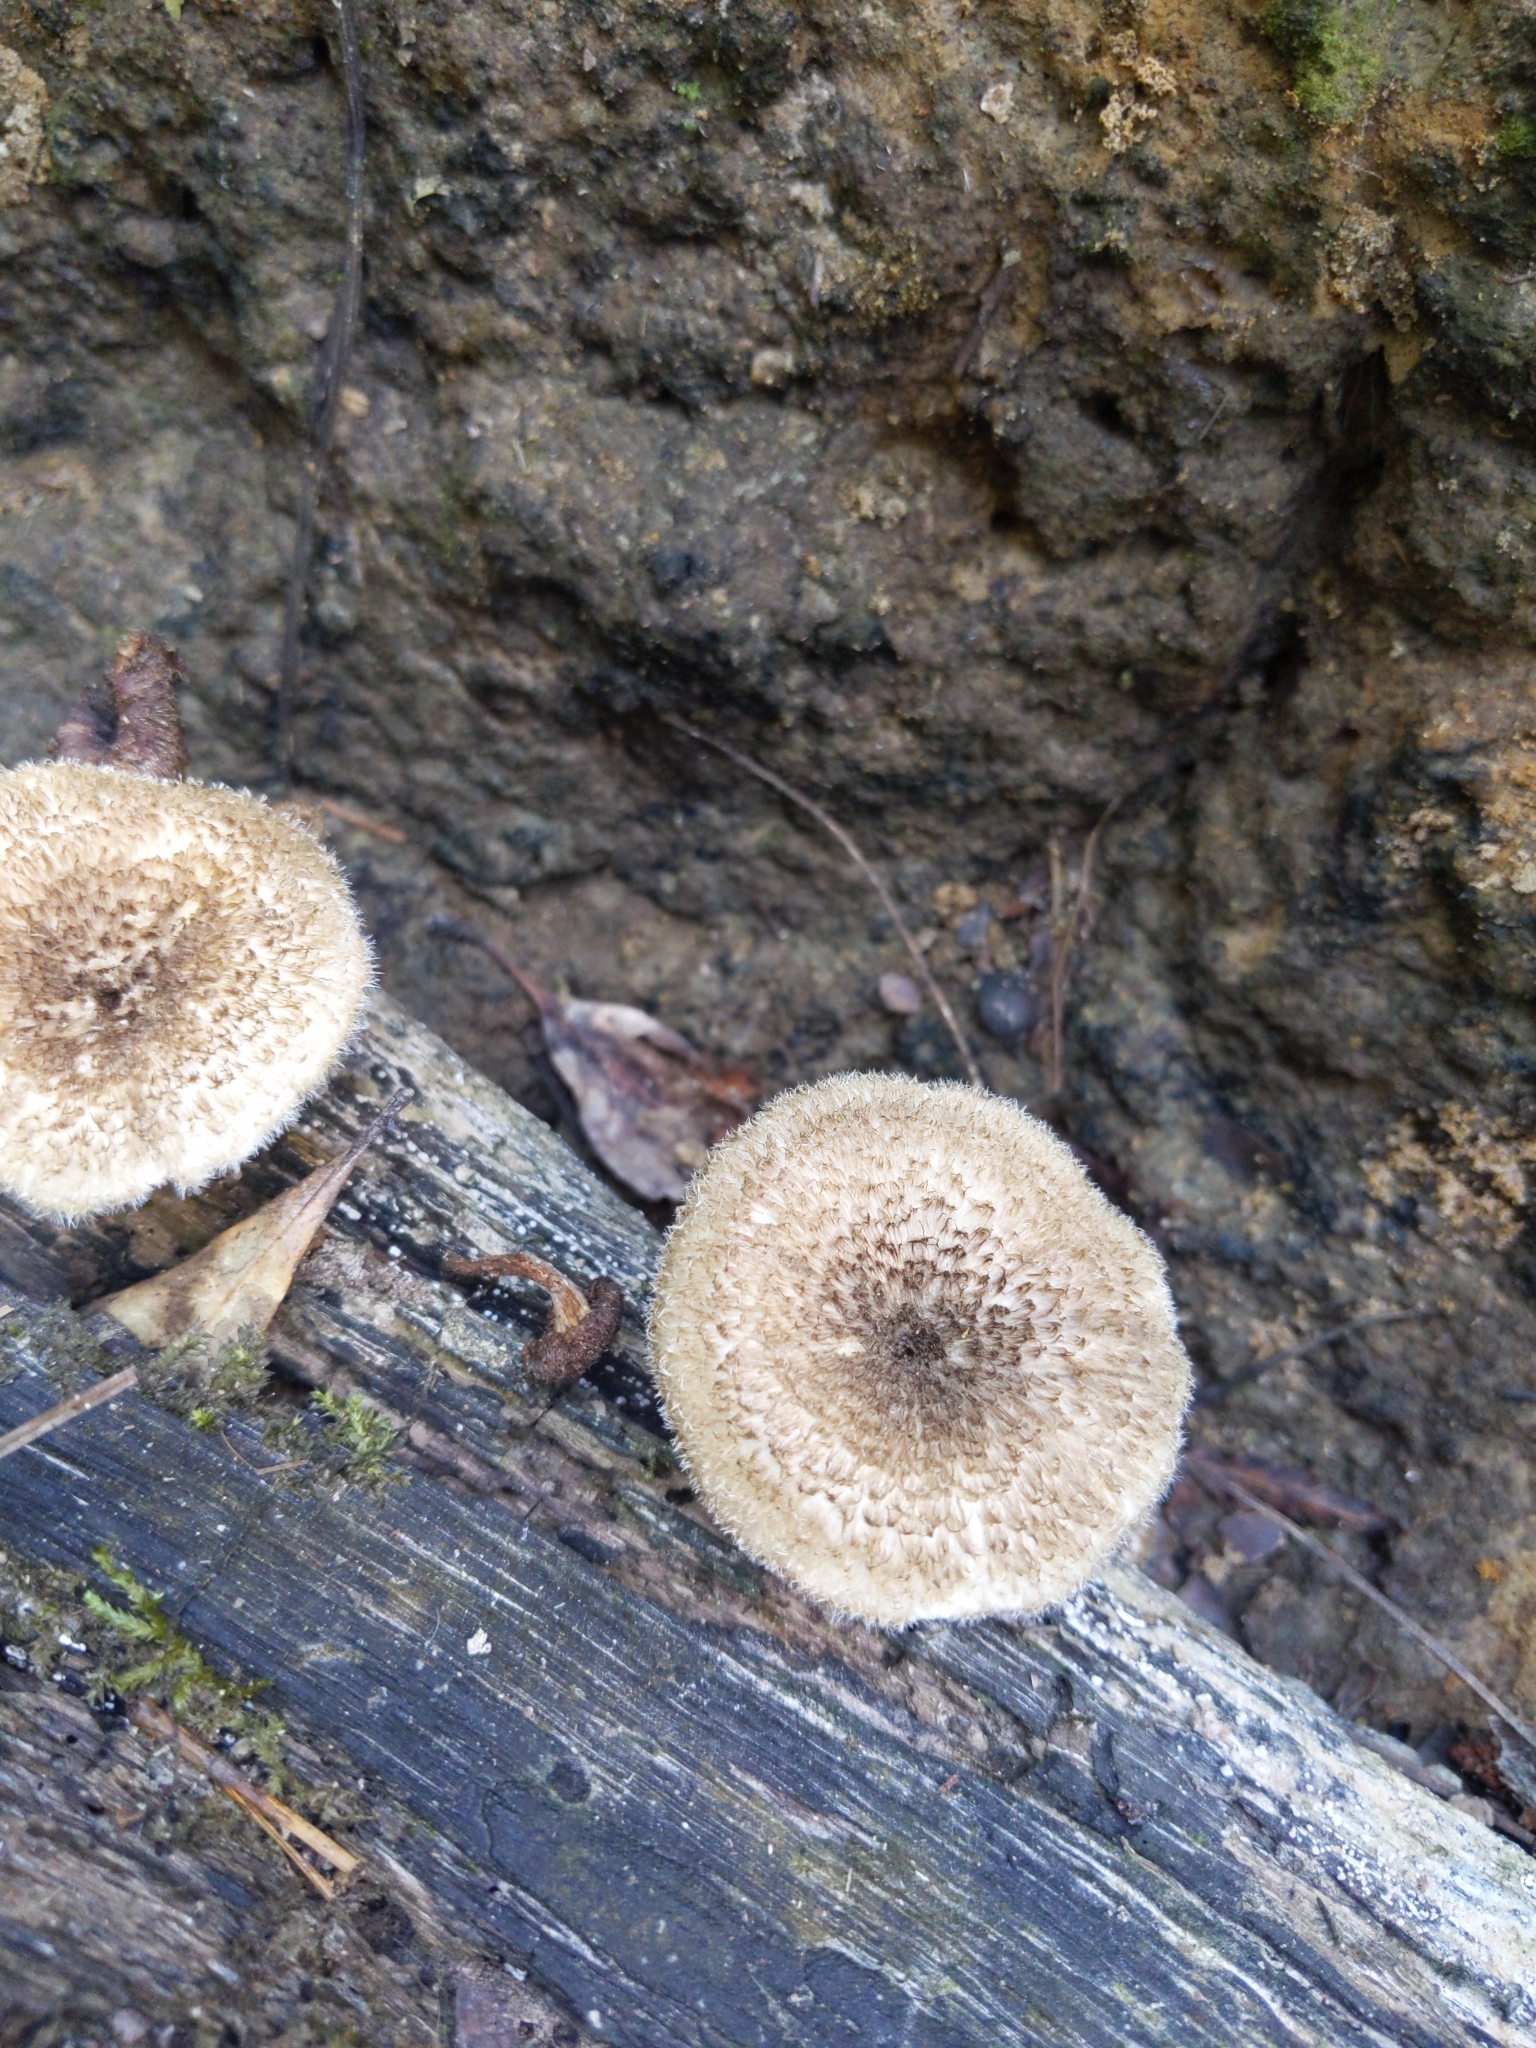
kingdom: Fungi
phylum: Basidiomycota
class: Agaricomycetes
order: Polyporales
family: Polyporaceae
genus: Lentinus
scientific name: Lentinus crinitus
